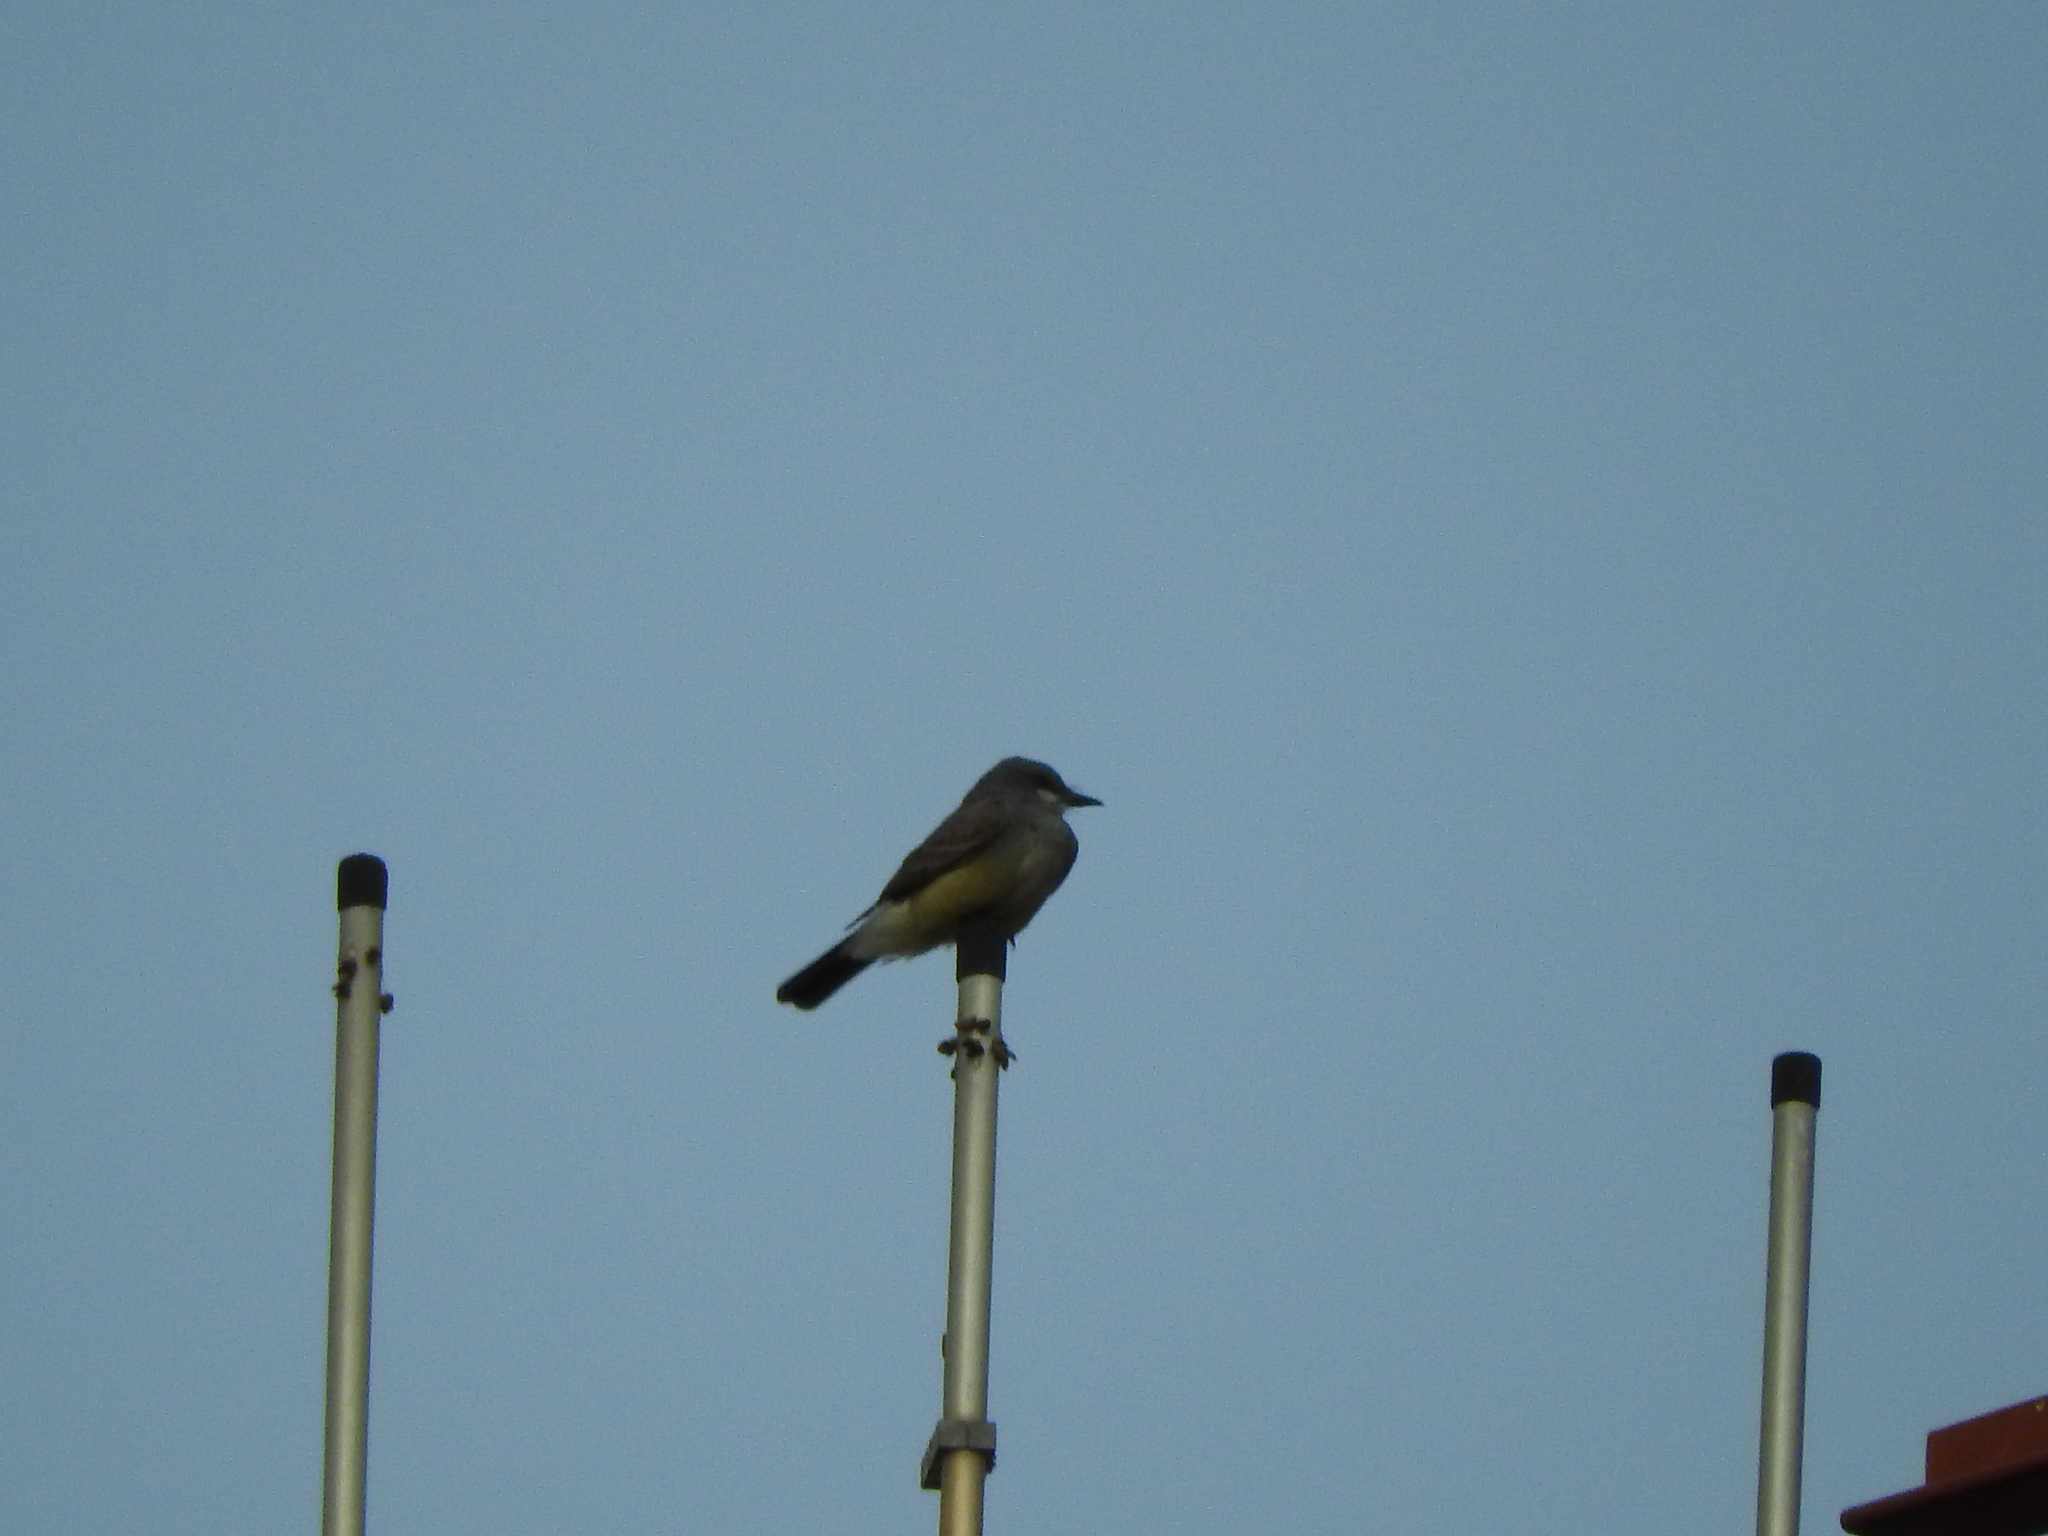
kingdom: Animalia
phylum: Chordata
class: Aves
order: Passeriformes
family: Tyrannidae
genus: Tyrannus
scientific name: Tyrannus vociferans
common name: Cassin's kingbird
